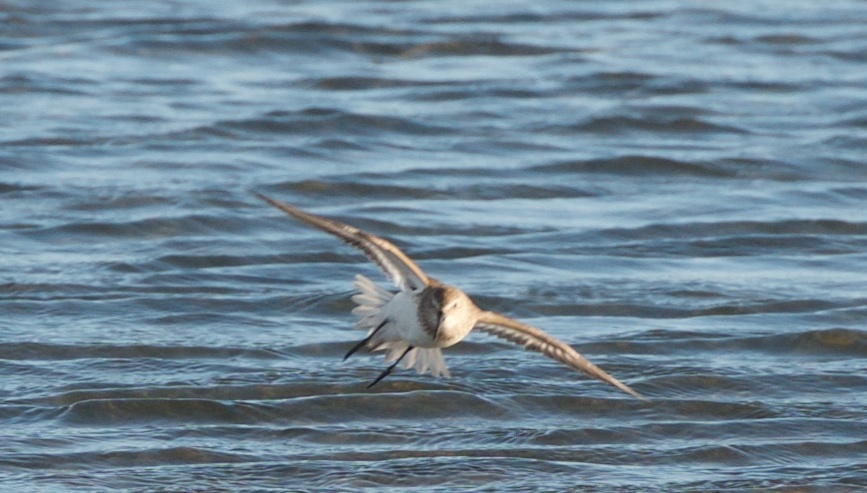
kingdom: Animalia
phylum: Chordata
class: Aves
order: Charadriiformes
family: Scolopacidae
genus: Calidris
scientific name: Calidris alpina
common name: Dunlin
